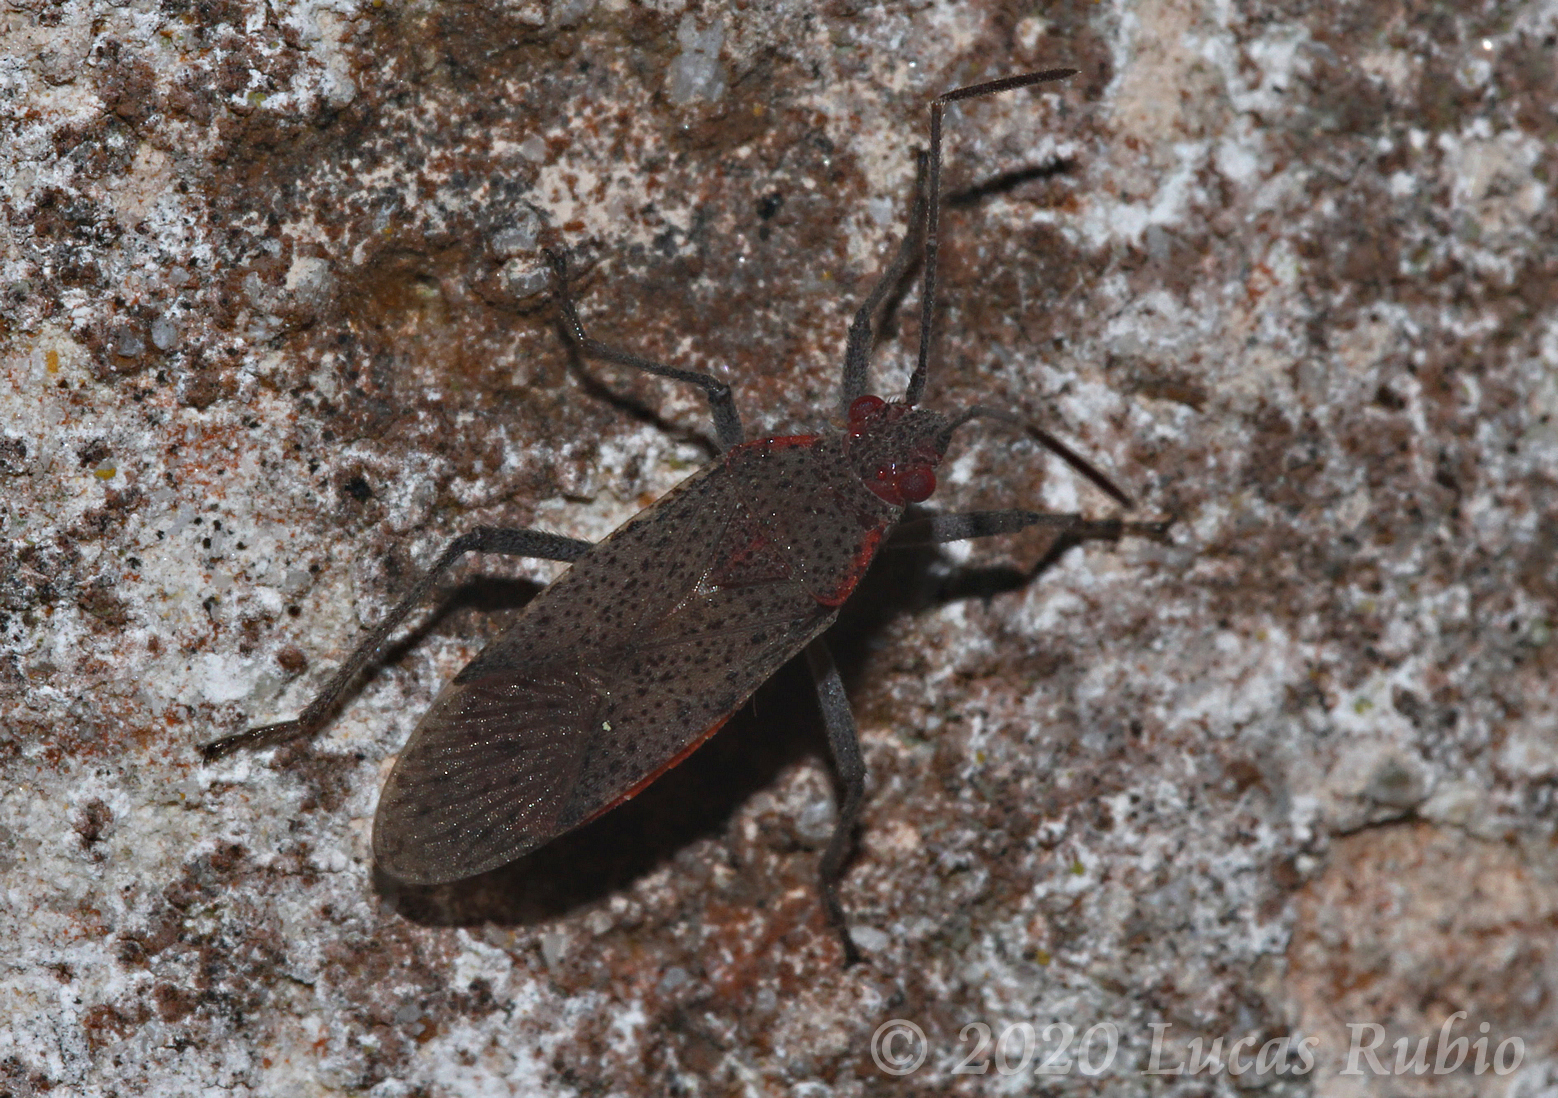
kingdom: Animalia
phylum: Arthropoda
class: Insecta
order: Hemiptera
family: Rhopalidae
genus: Jadera
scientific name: Jadera parapectoralis
